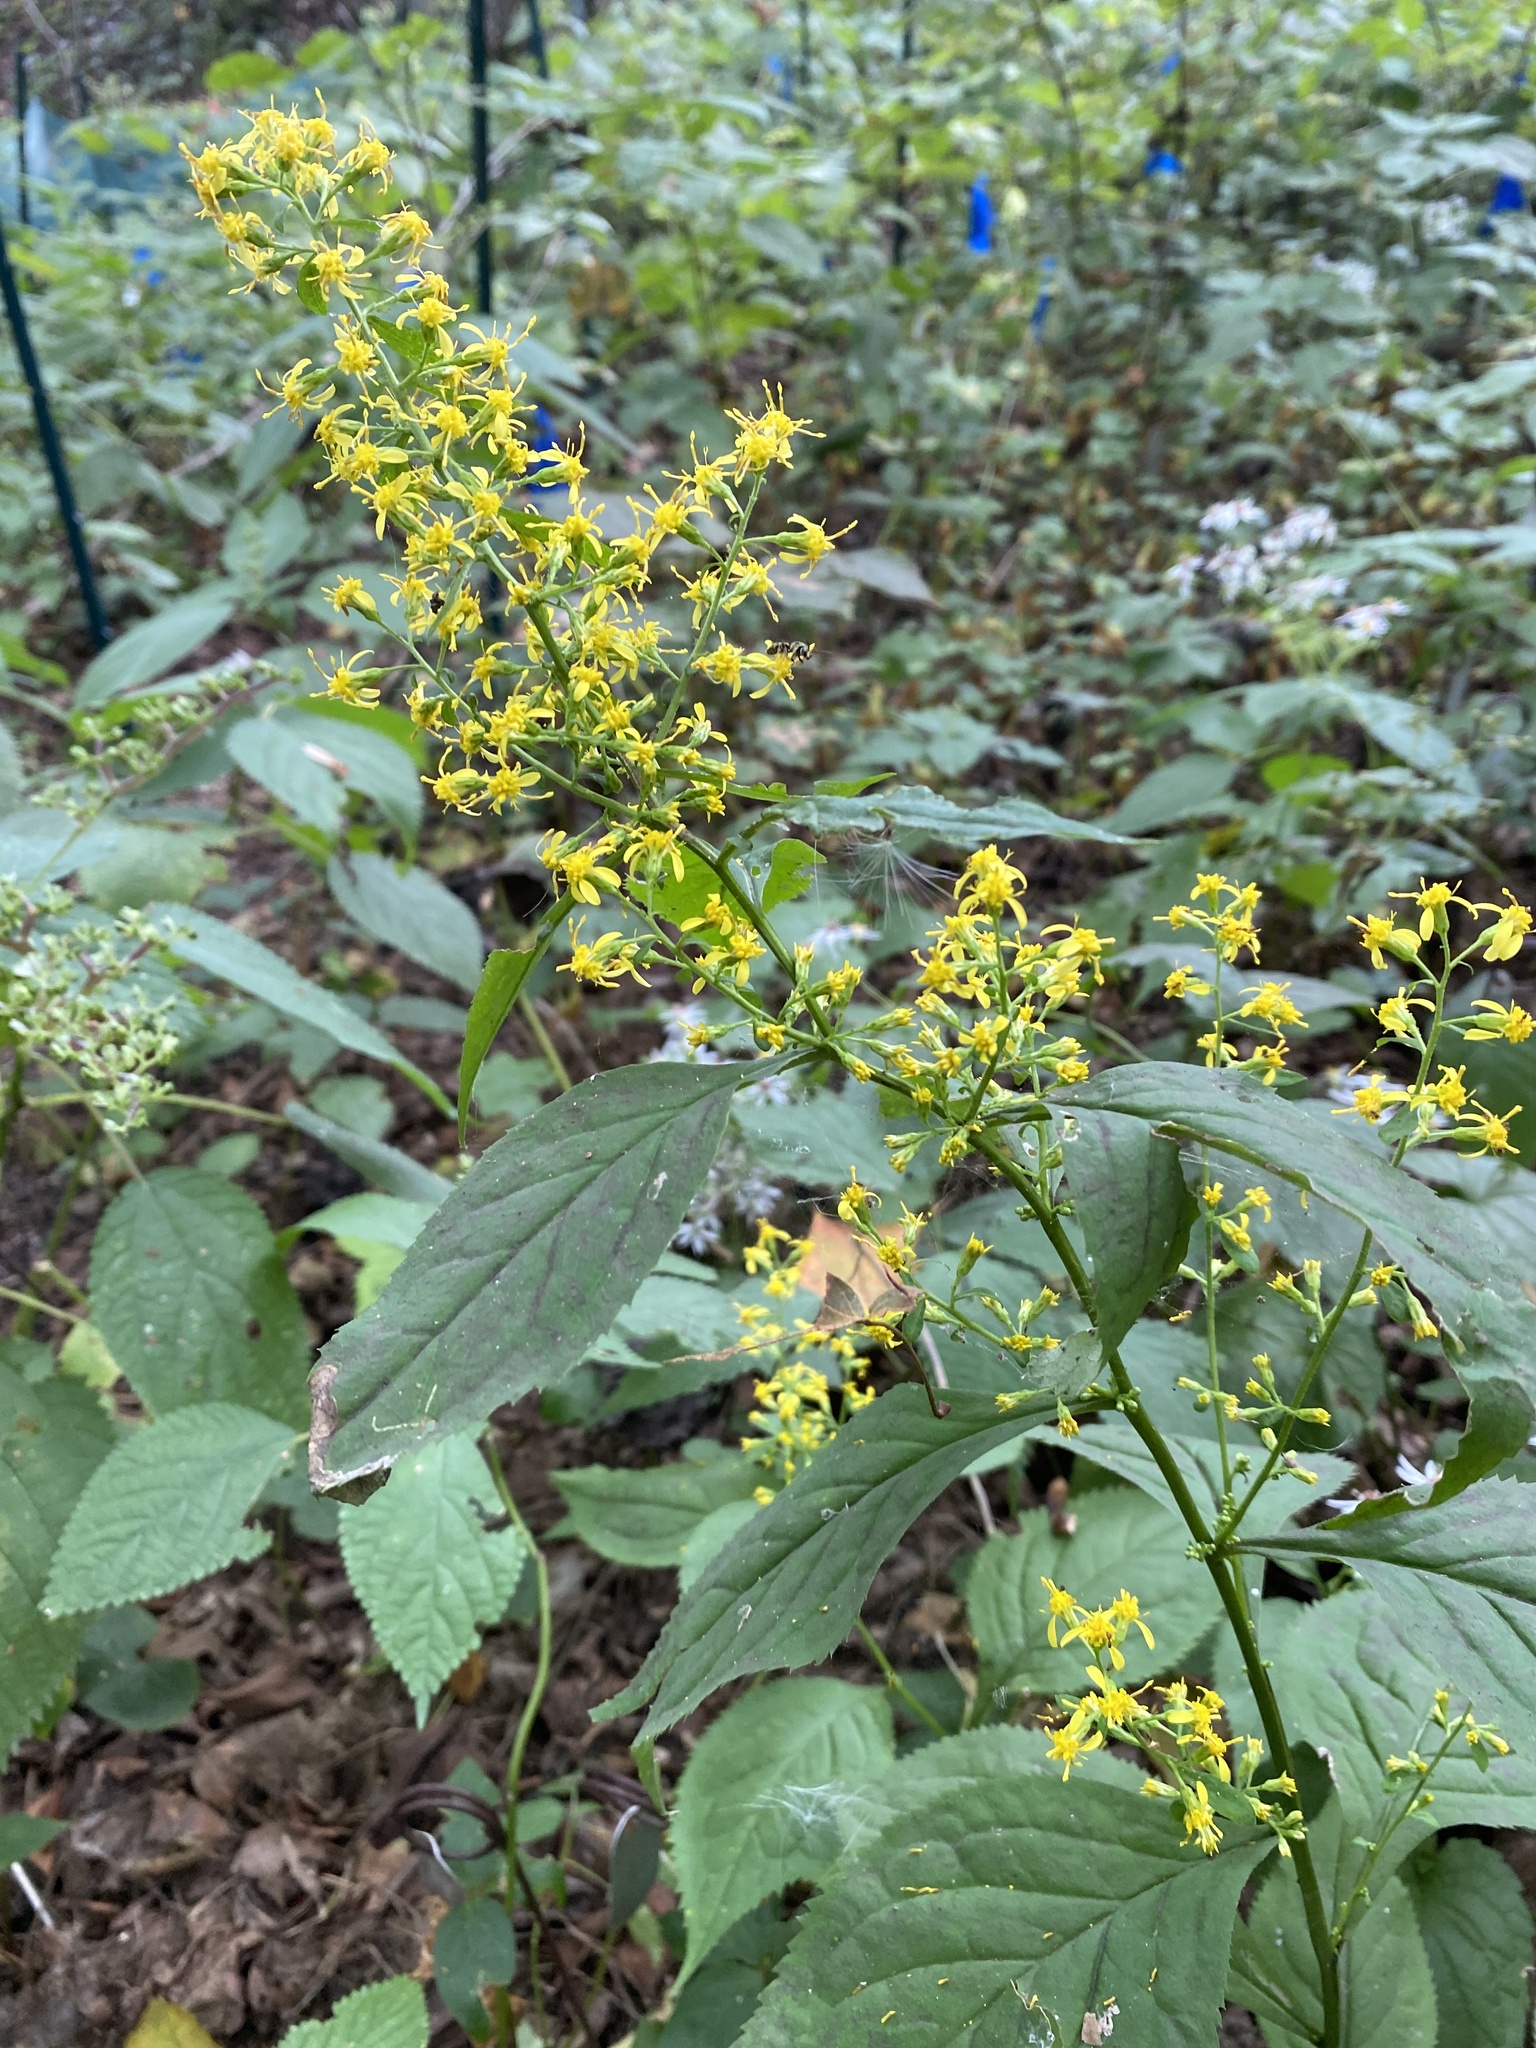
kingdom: Plantae
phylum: Tracheophyta
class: Magnoliopsida
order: Asterales
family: Asteraceae
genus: Solidago
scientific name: Solidago flexicaulis
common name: Zig-zag goldenrod
